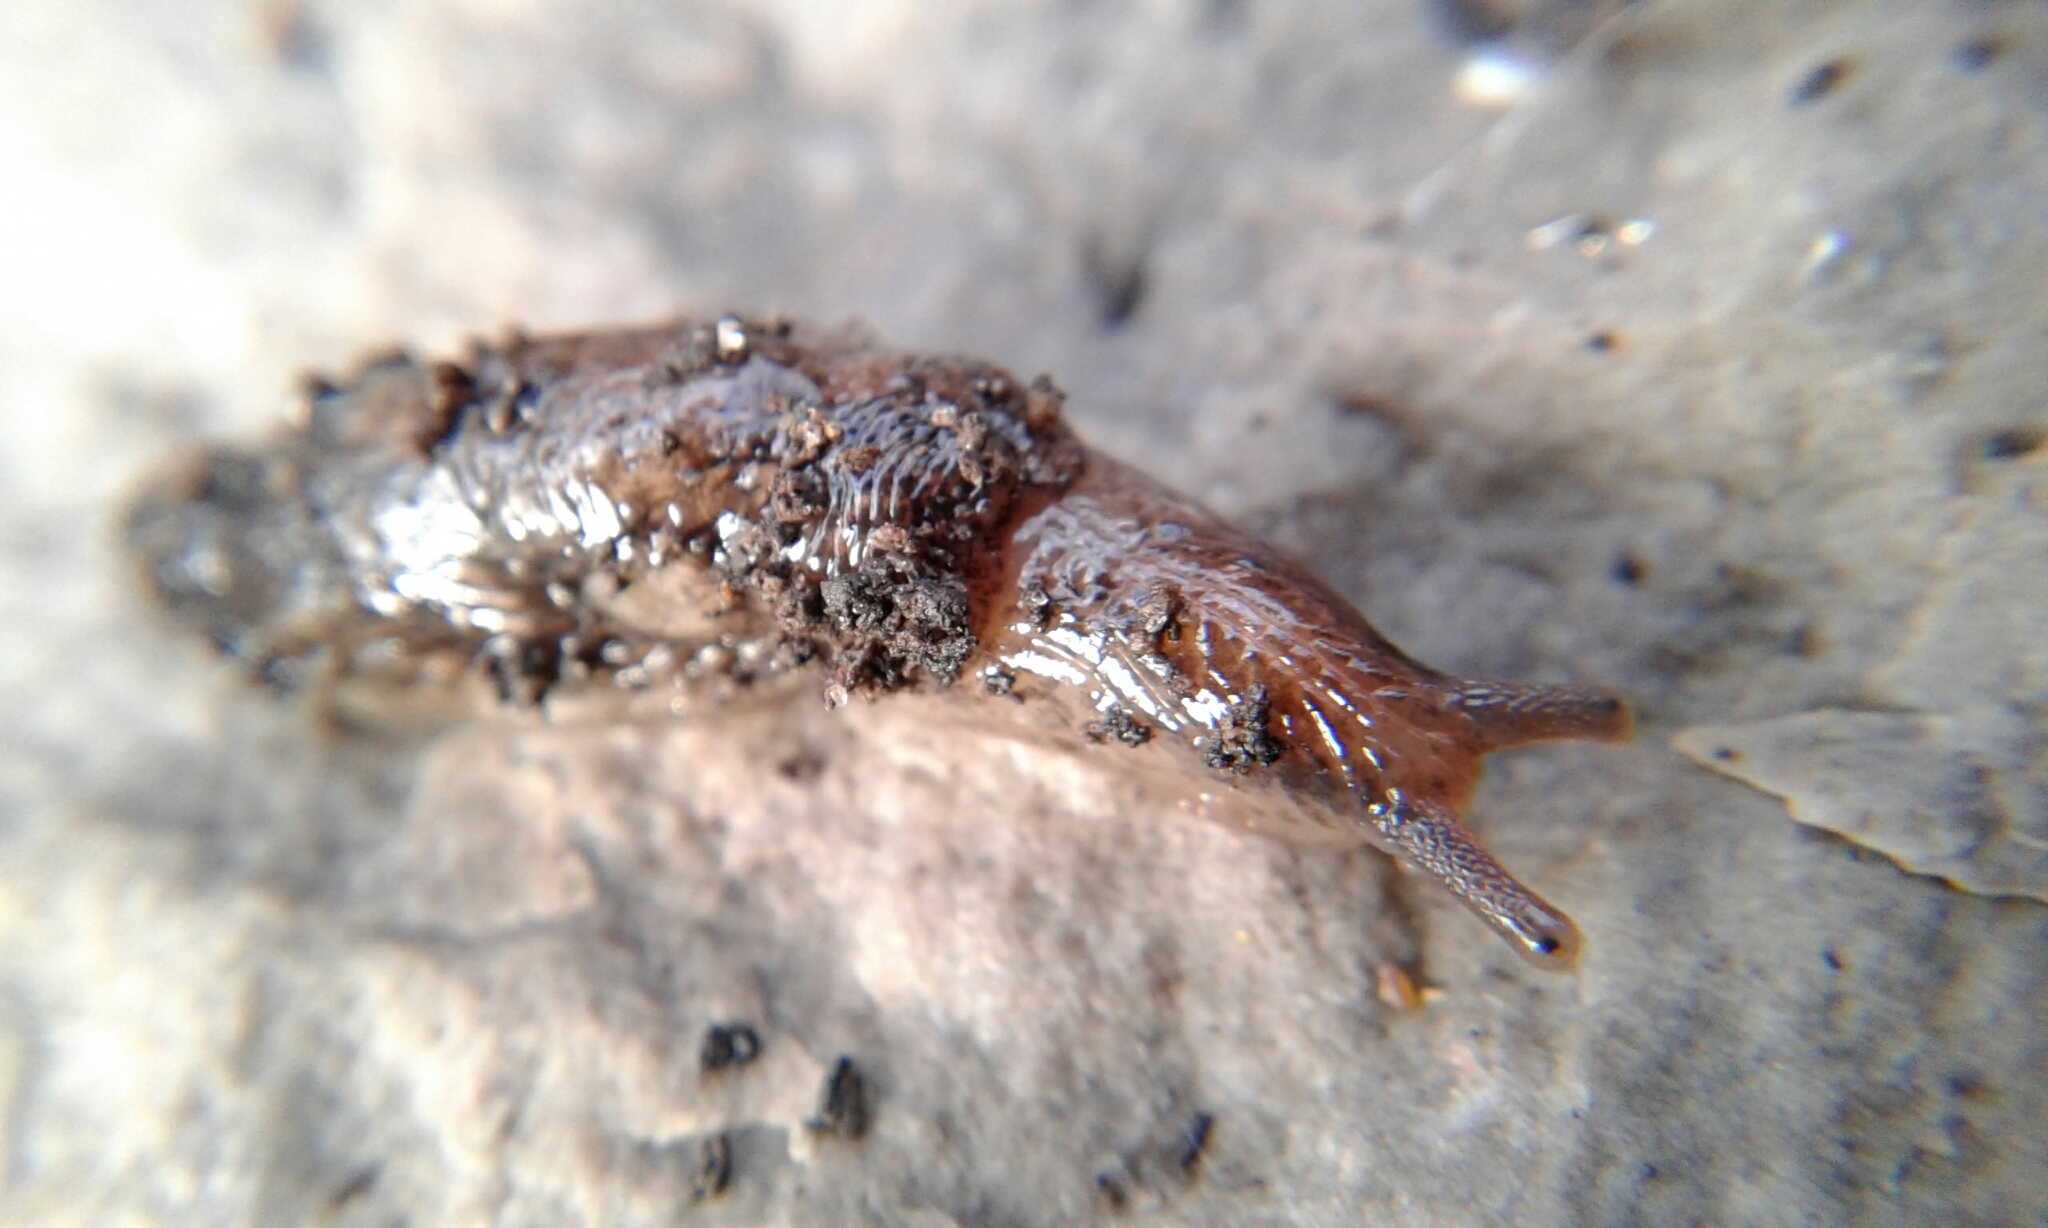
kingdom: Animalia
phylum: Mollusca
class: Gastropoda
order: Stylommatophora
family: Agriolimacidae
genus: Deroceras
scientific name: Deroceras reticulatum
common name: Gray field slug
